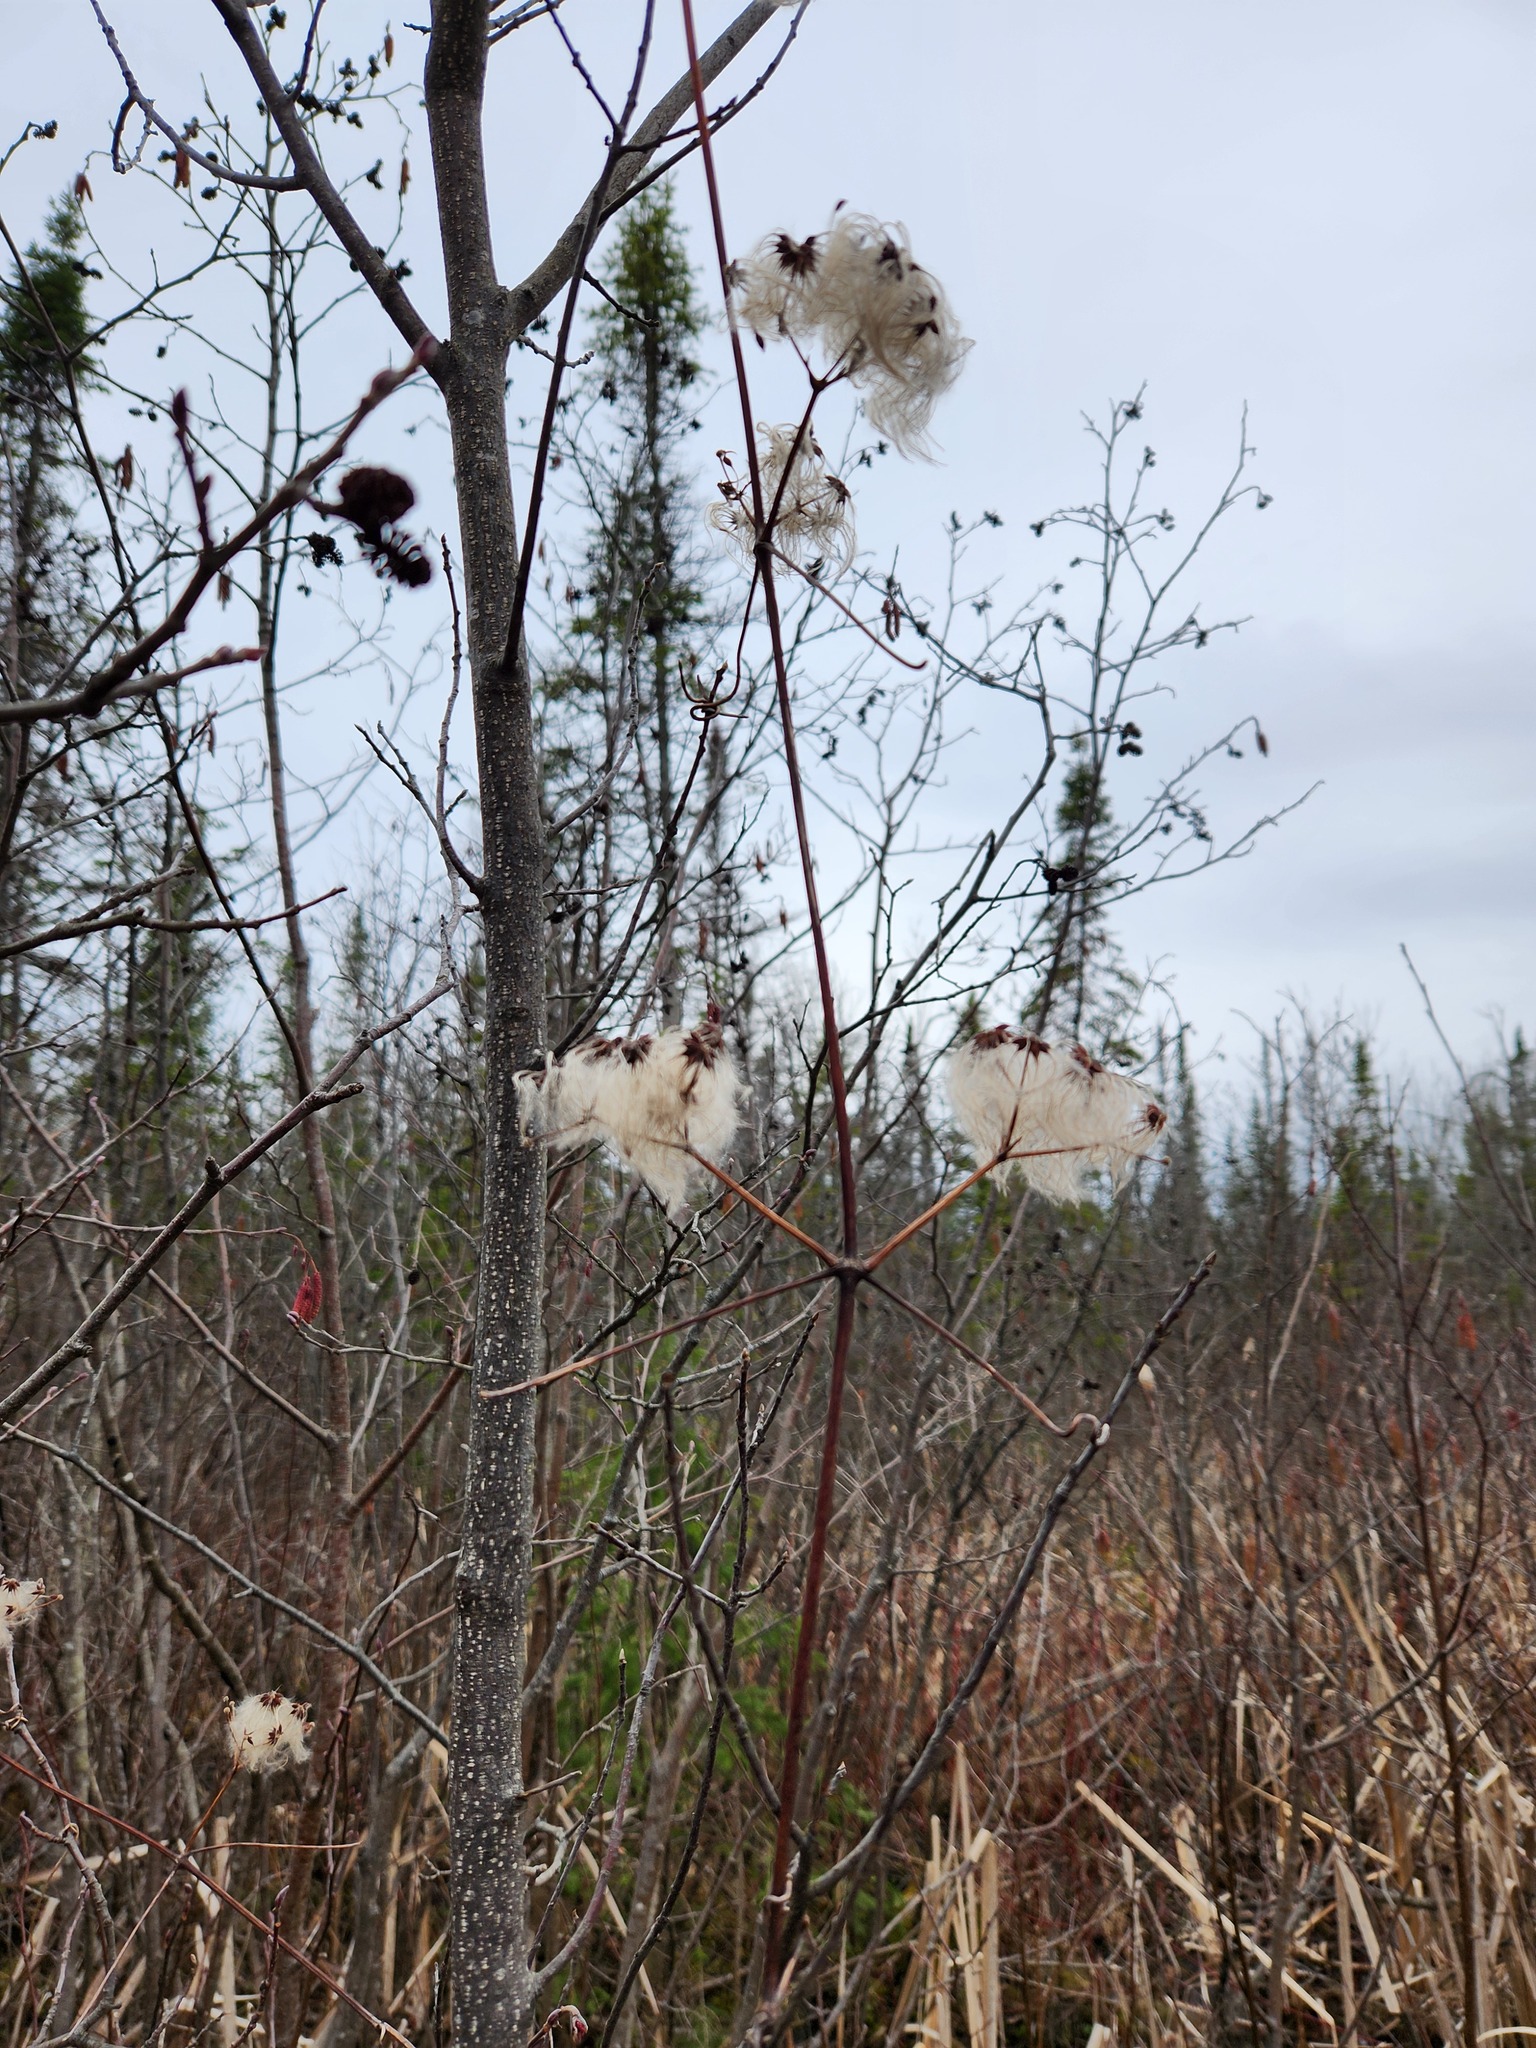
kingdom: Plantae
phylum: Tracheophyta
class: Magnoliopsida
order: Ranunculales
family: Ranunculaceae
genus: Clematis
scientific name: Clematis virginiana
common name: Virgin's-bower
